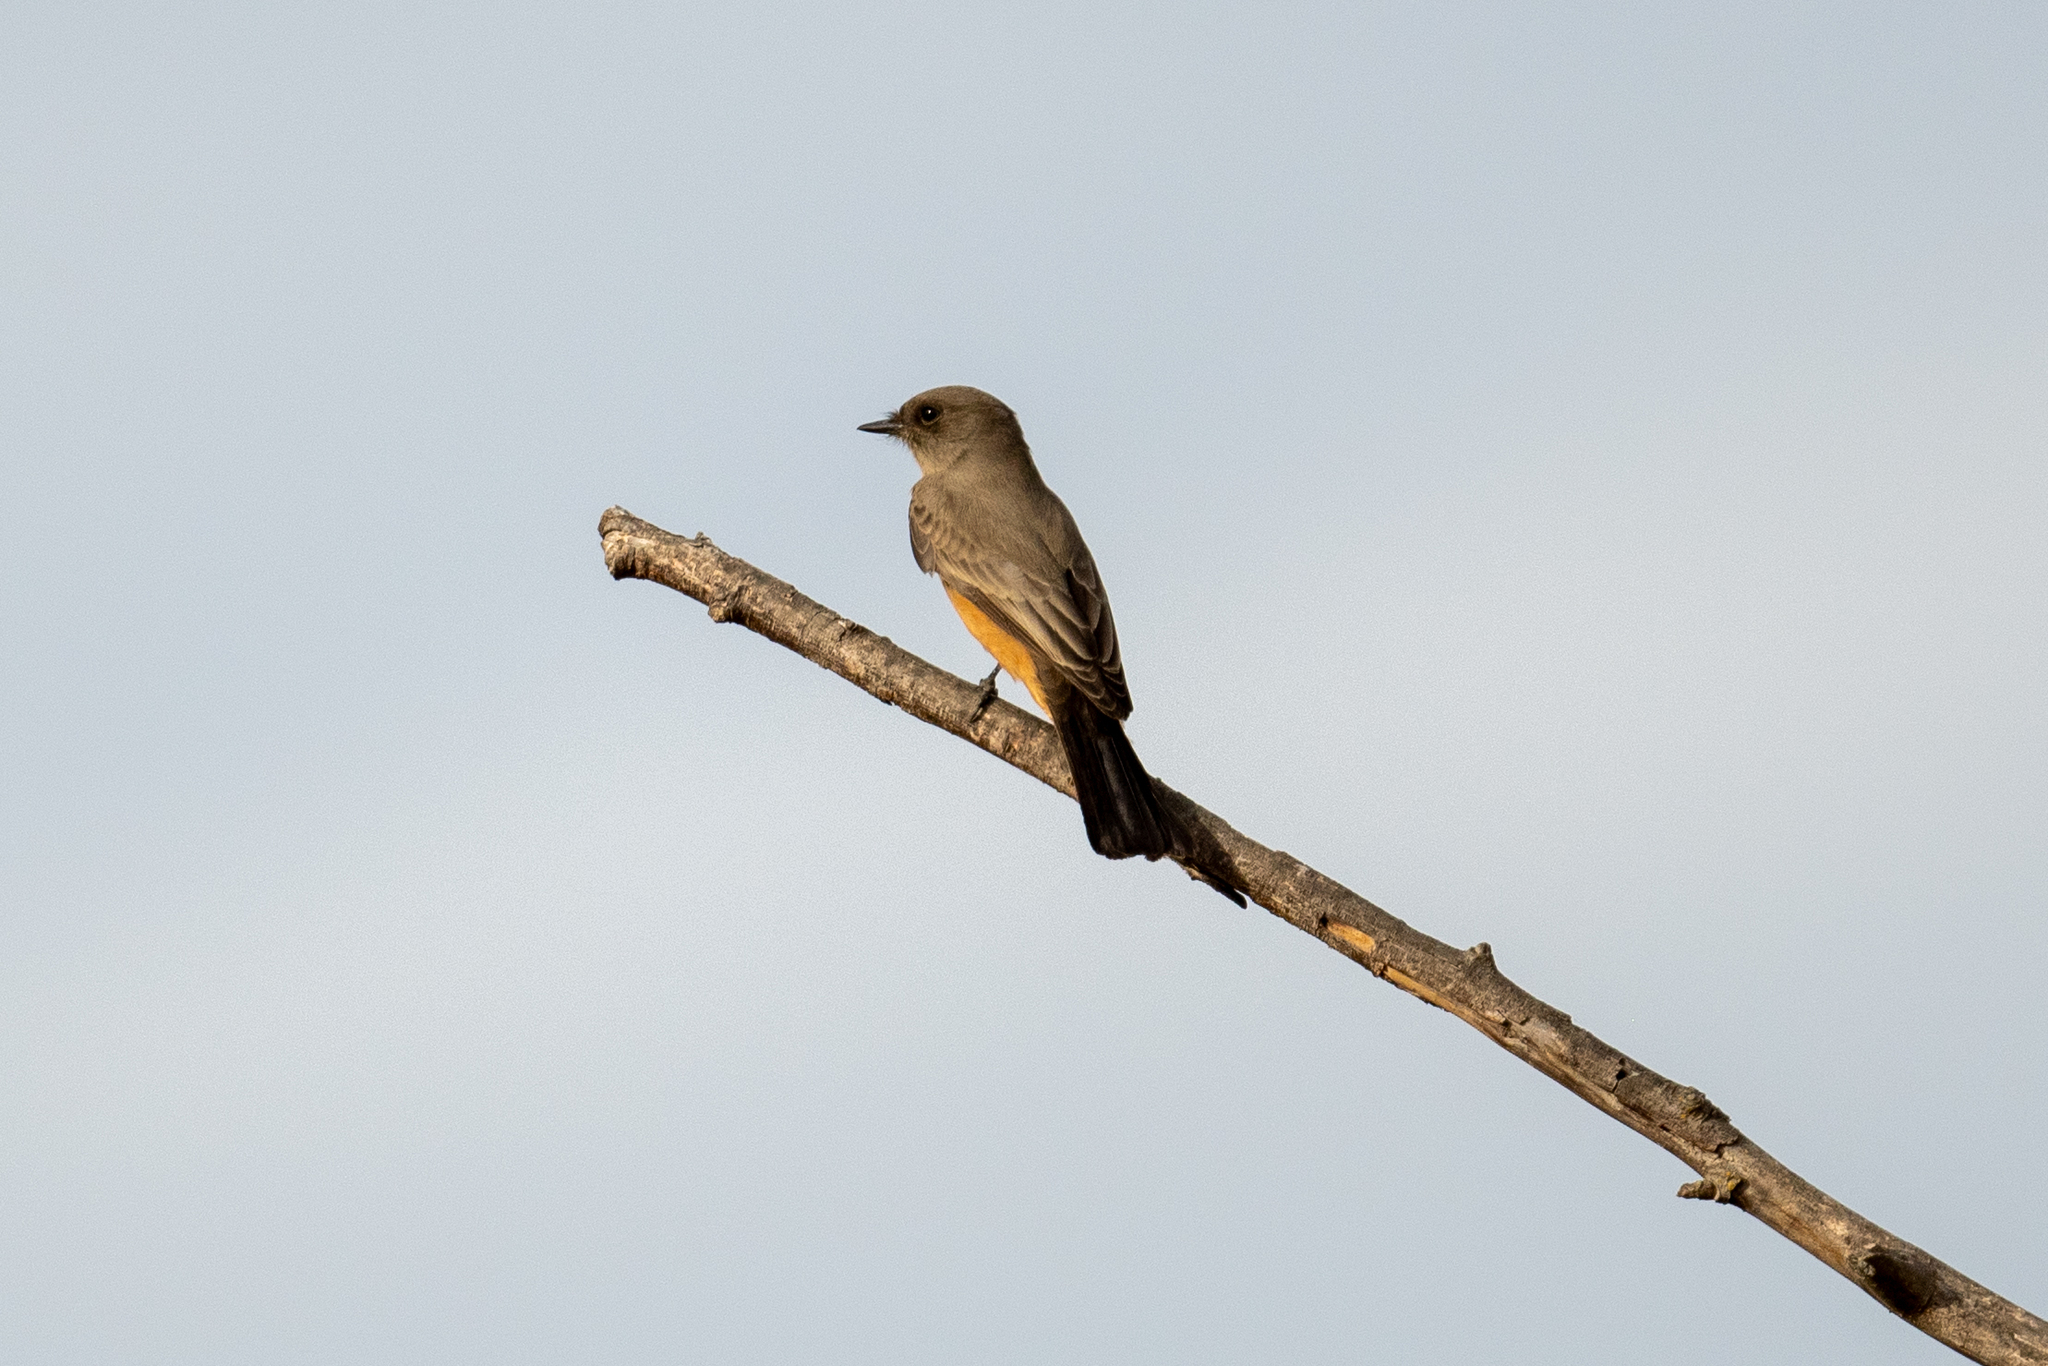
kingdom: Animalia
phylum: Chordata
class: Aves
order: Passeriformes
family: Tyrannidae
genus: Sayornis
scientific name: Sayornis saya
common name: Say's phoebe
